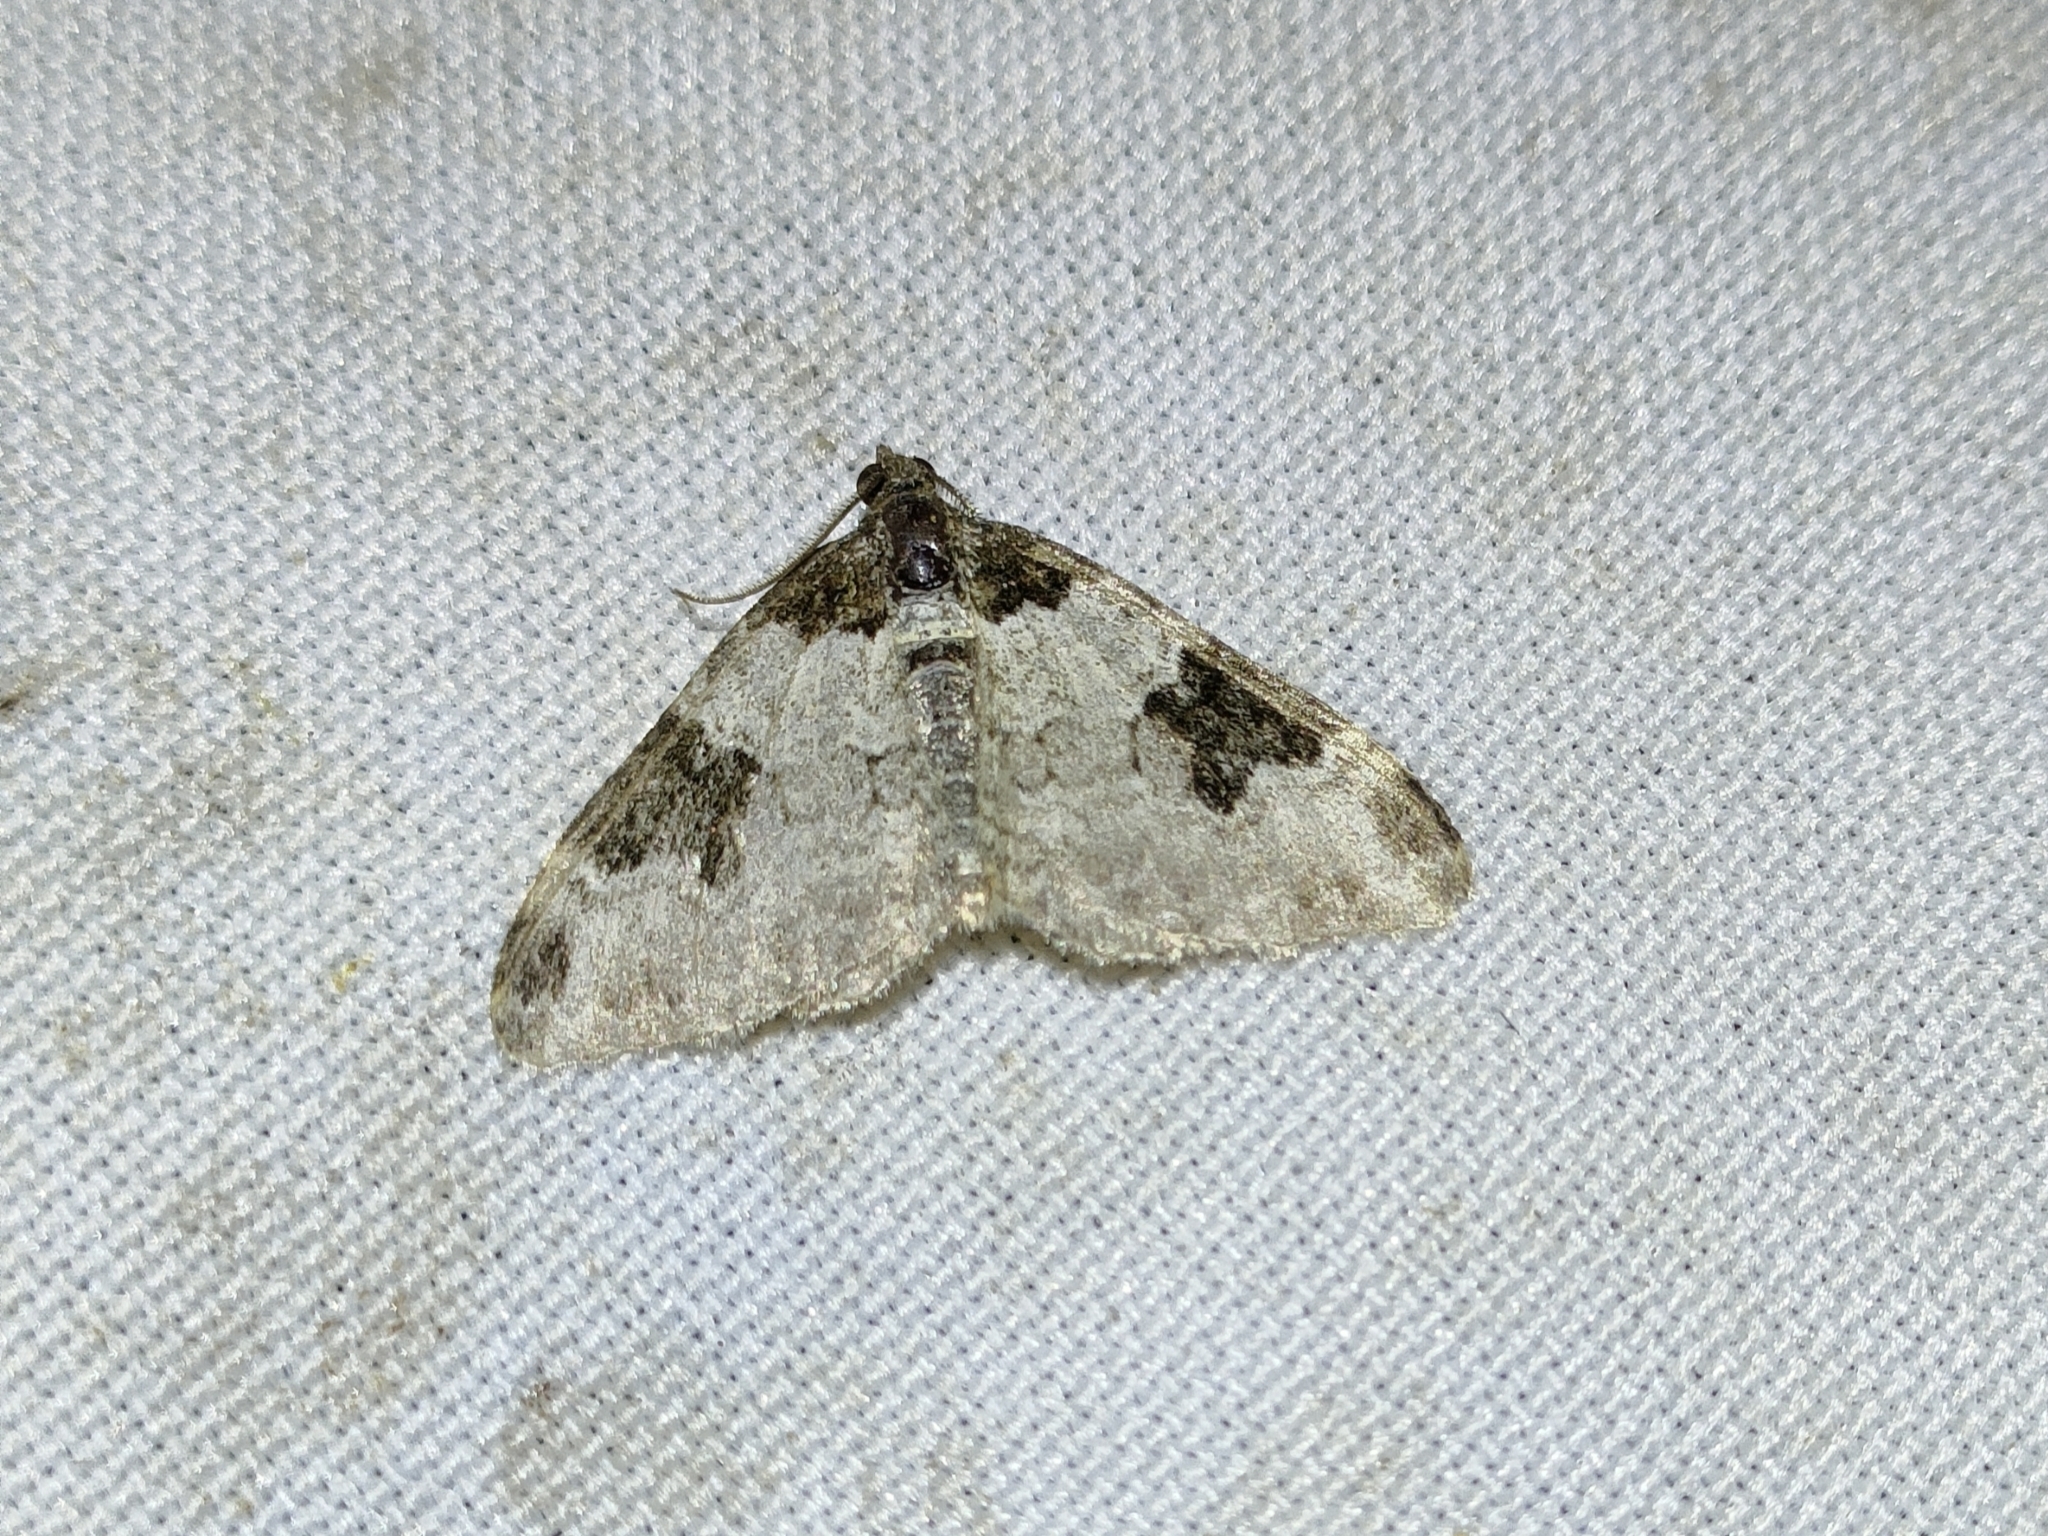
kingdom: Animalia
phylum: Arthropoda
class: Insecta
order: Lepidoptera
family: Geometridae
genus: Xanthorhoe
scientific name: Xanthorhoe fluctuata
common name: Garden carpet
